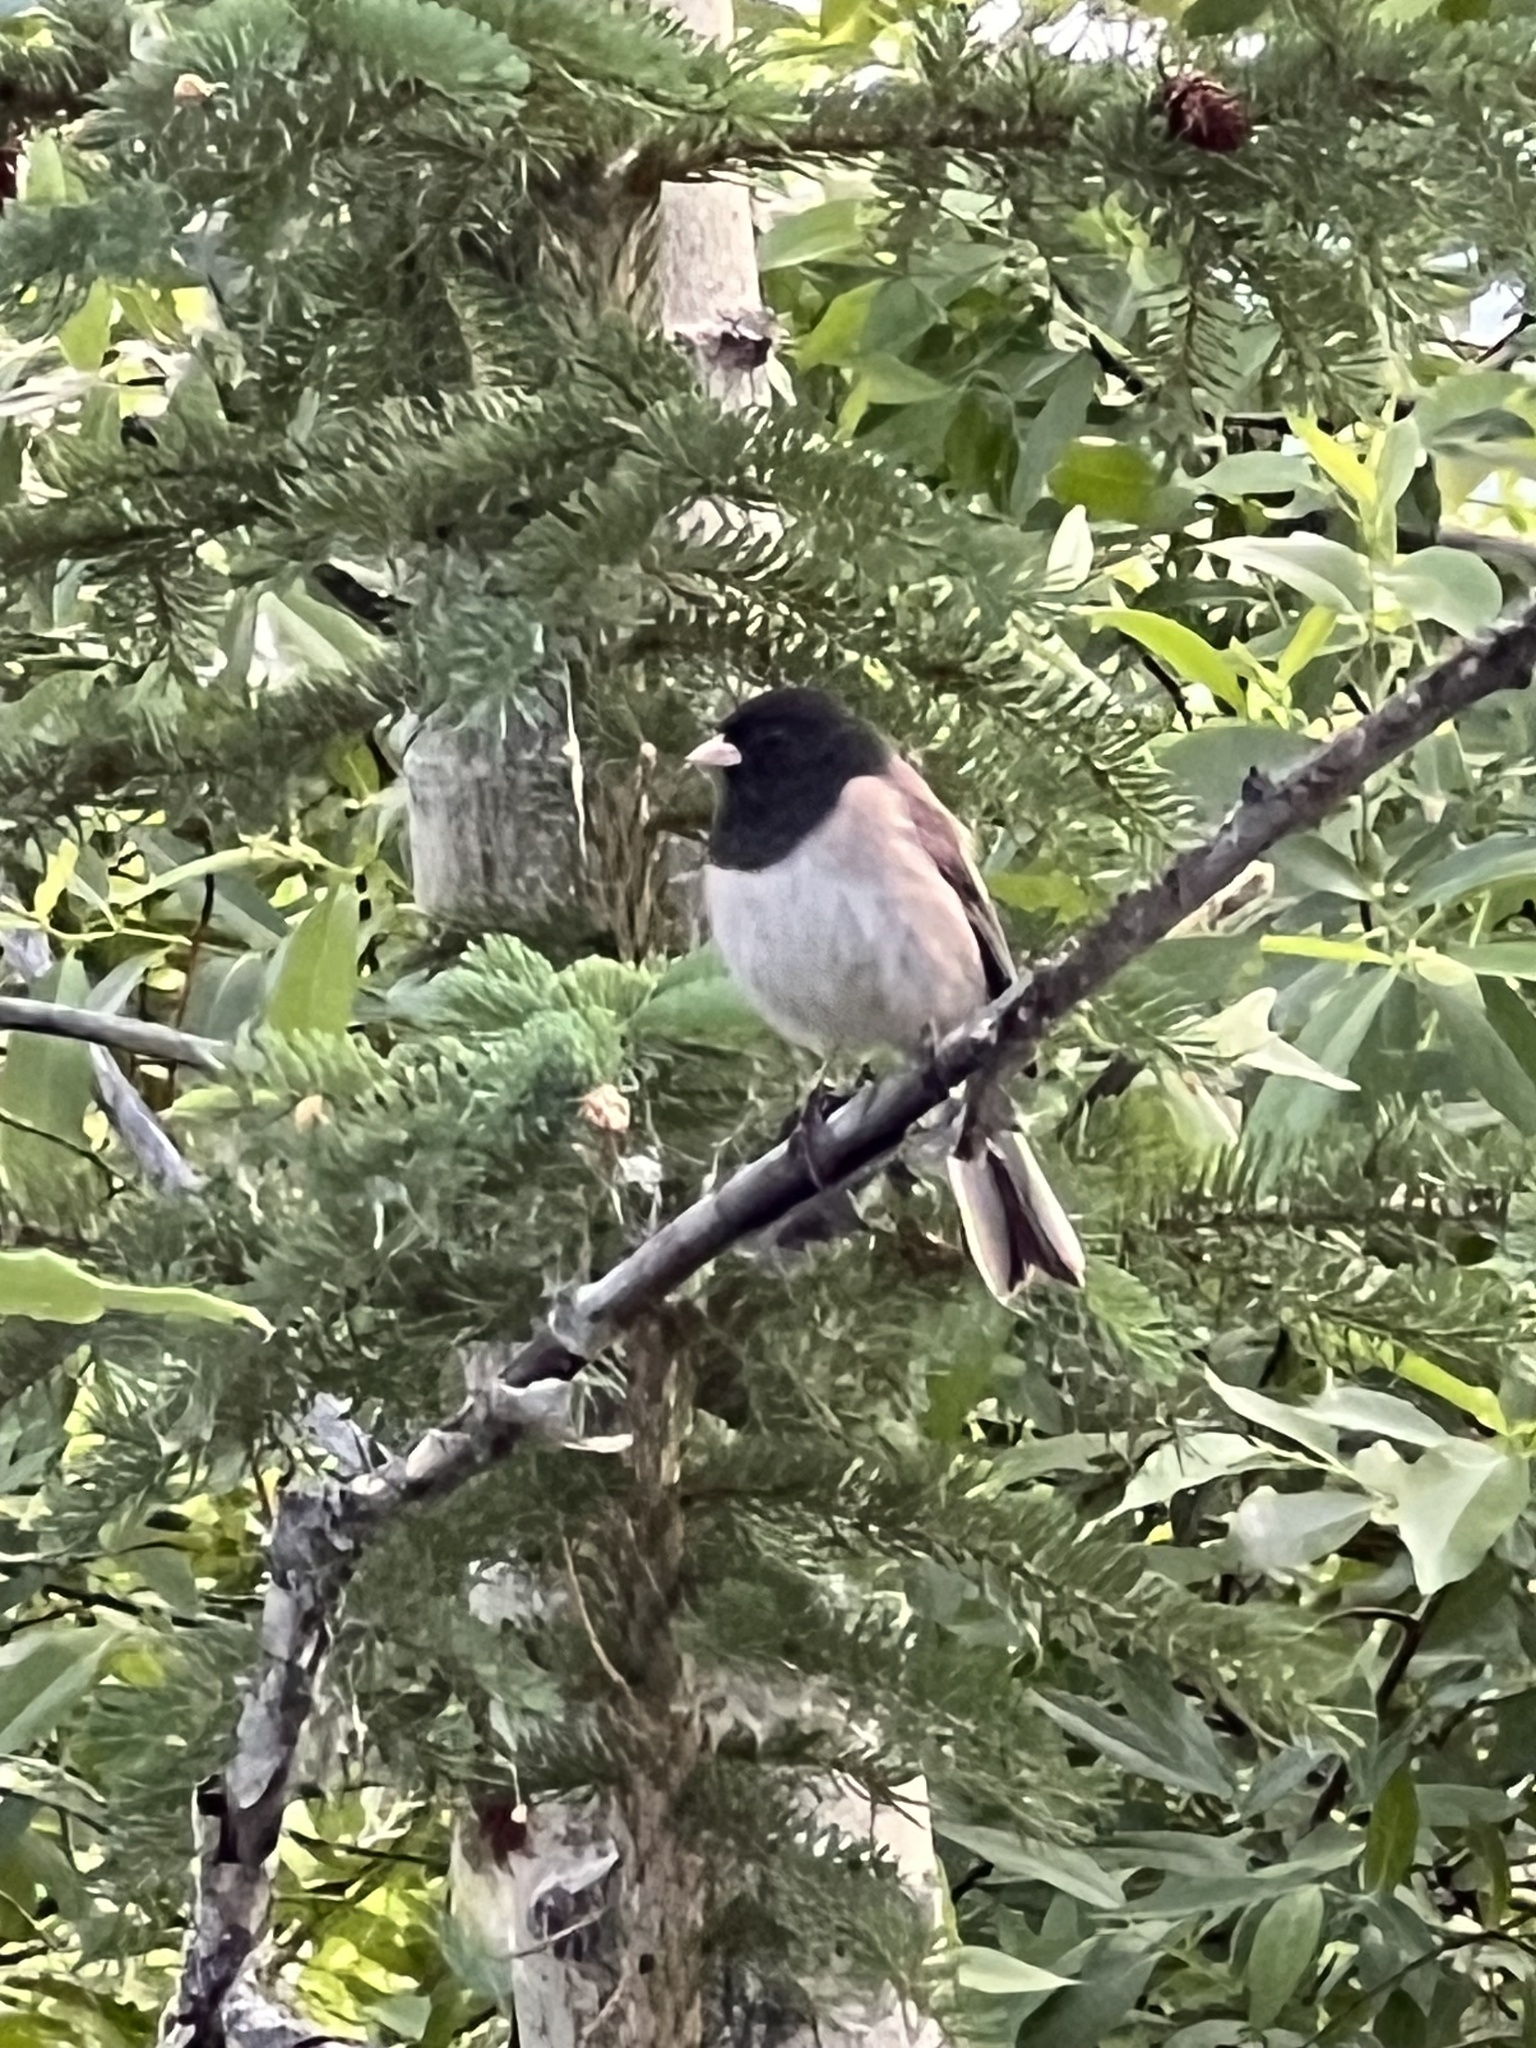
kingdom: Animalia
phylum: Chordata
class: Aves
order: Passeriformes
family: Passerellidae
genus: Junco
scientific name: Junco hyemalis
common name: Dark-eyed junco
